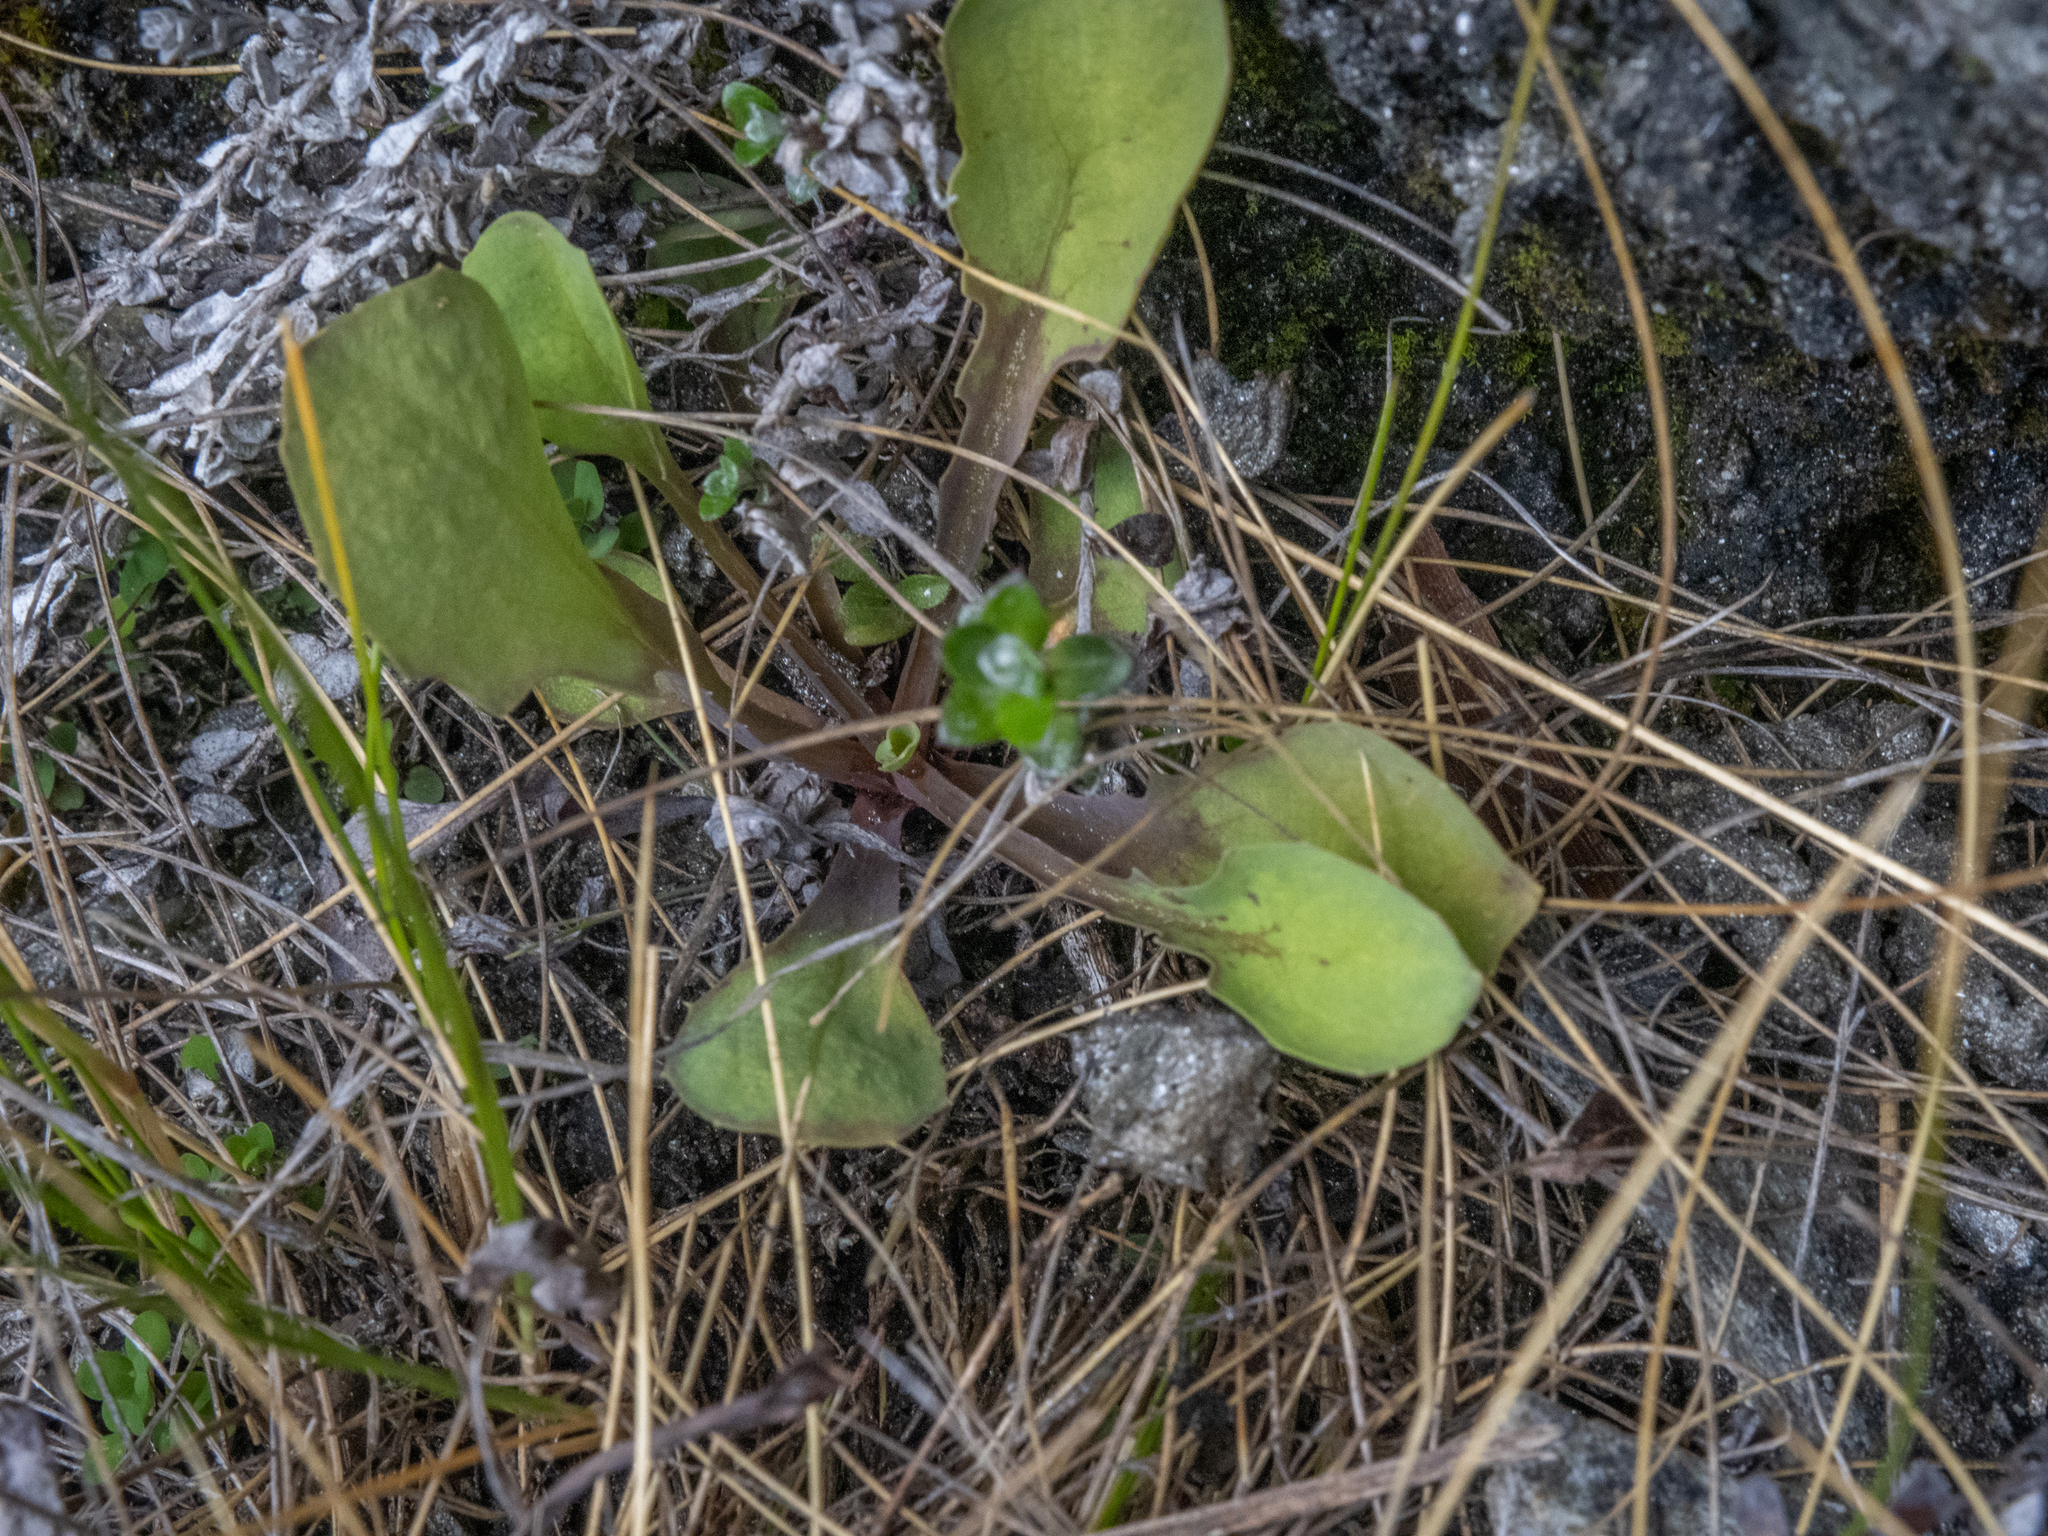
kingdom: Plantae
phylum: Tracheophyta
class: Magnoliopsida
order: Asterales
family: Asteraceae
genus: Sonchus
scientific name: Sonchus novae-zelandiae
